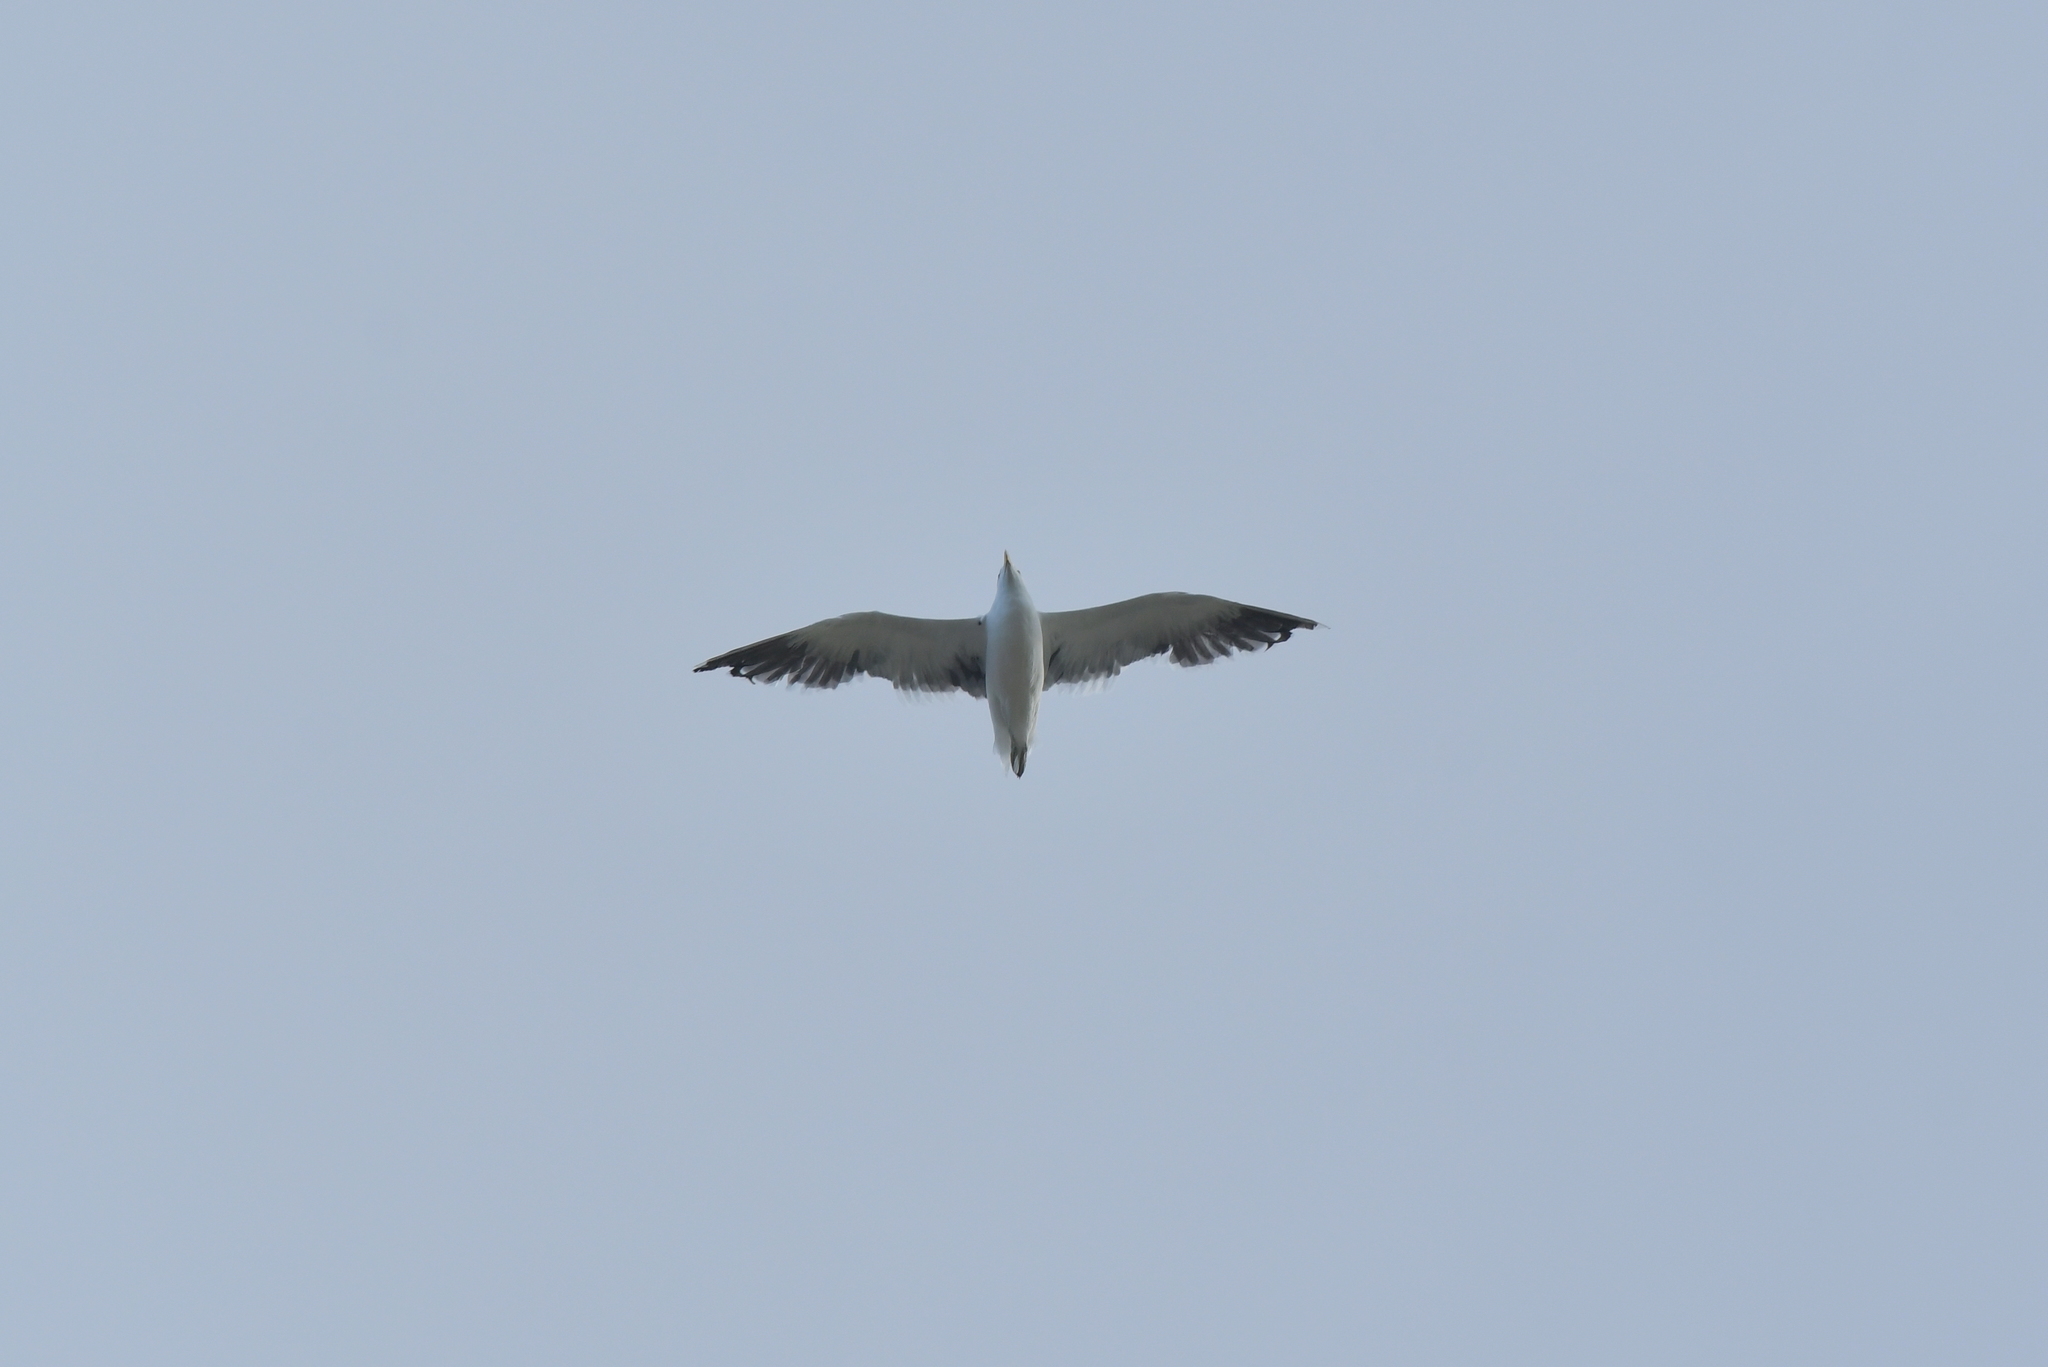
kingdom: Animalia
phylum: Chordata
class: Aves
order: Charadriiformes
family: Laridae
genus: Larus
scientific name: Larus dominicanus
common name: Kelp gull
